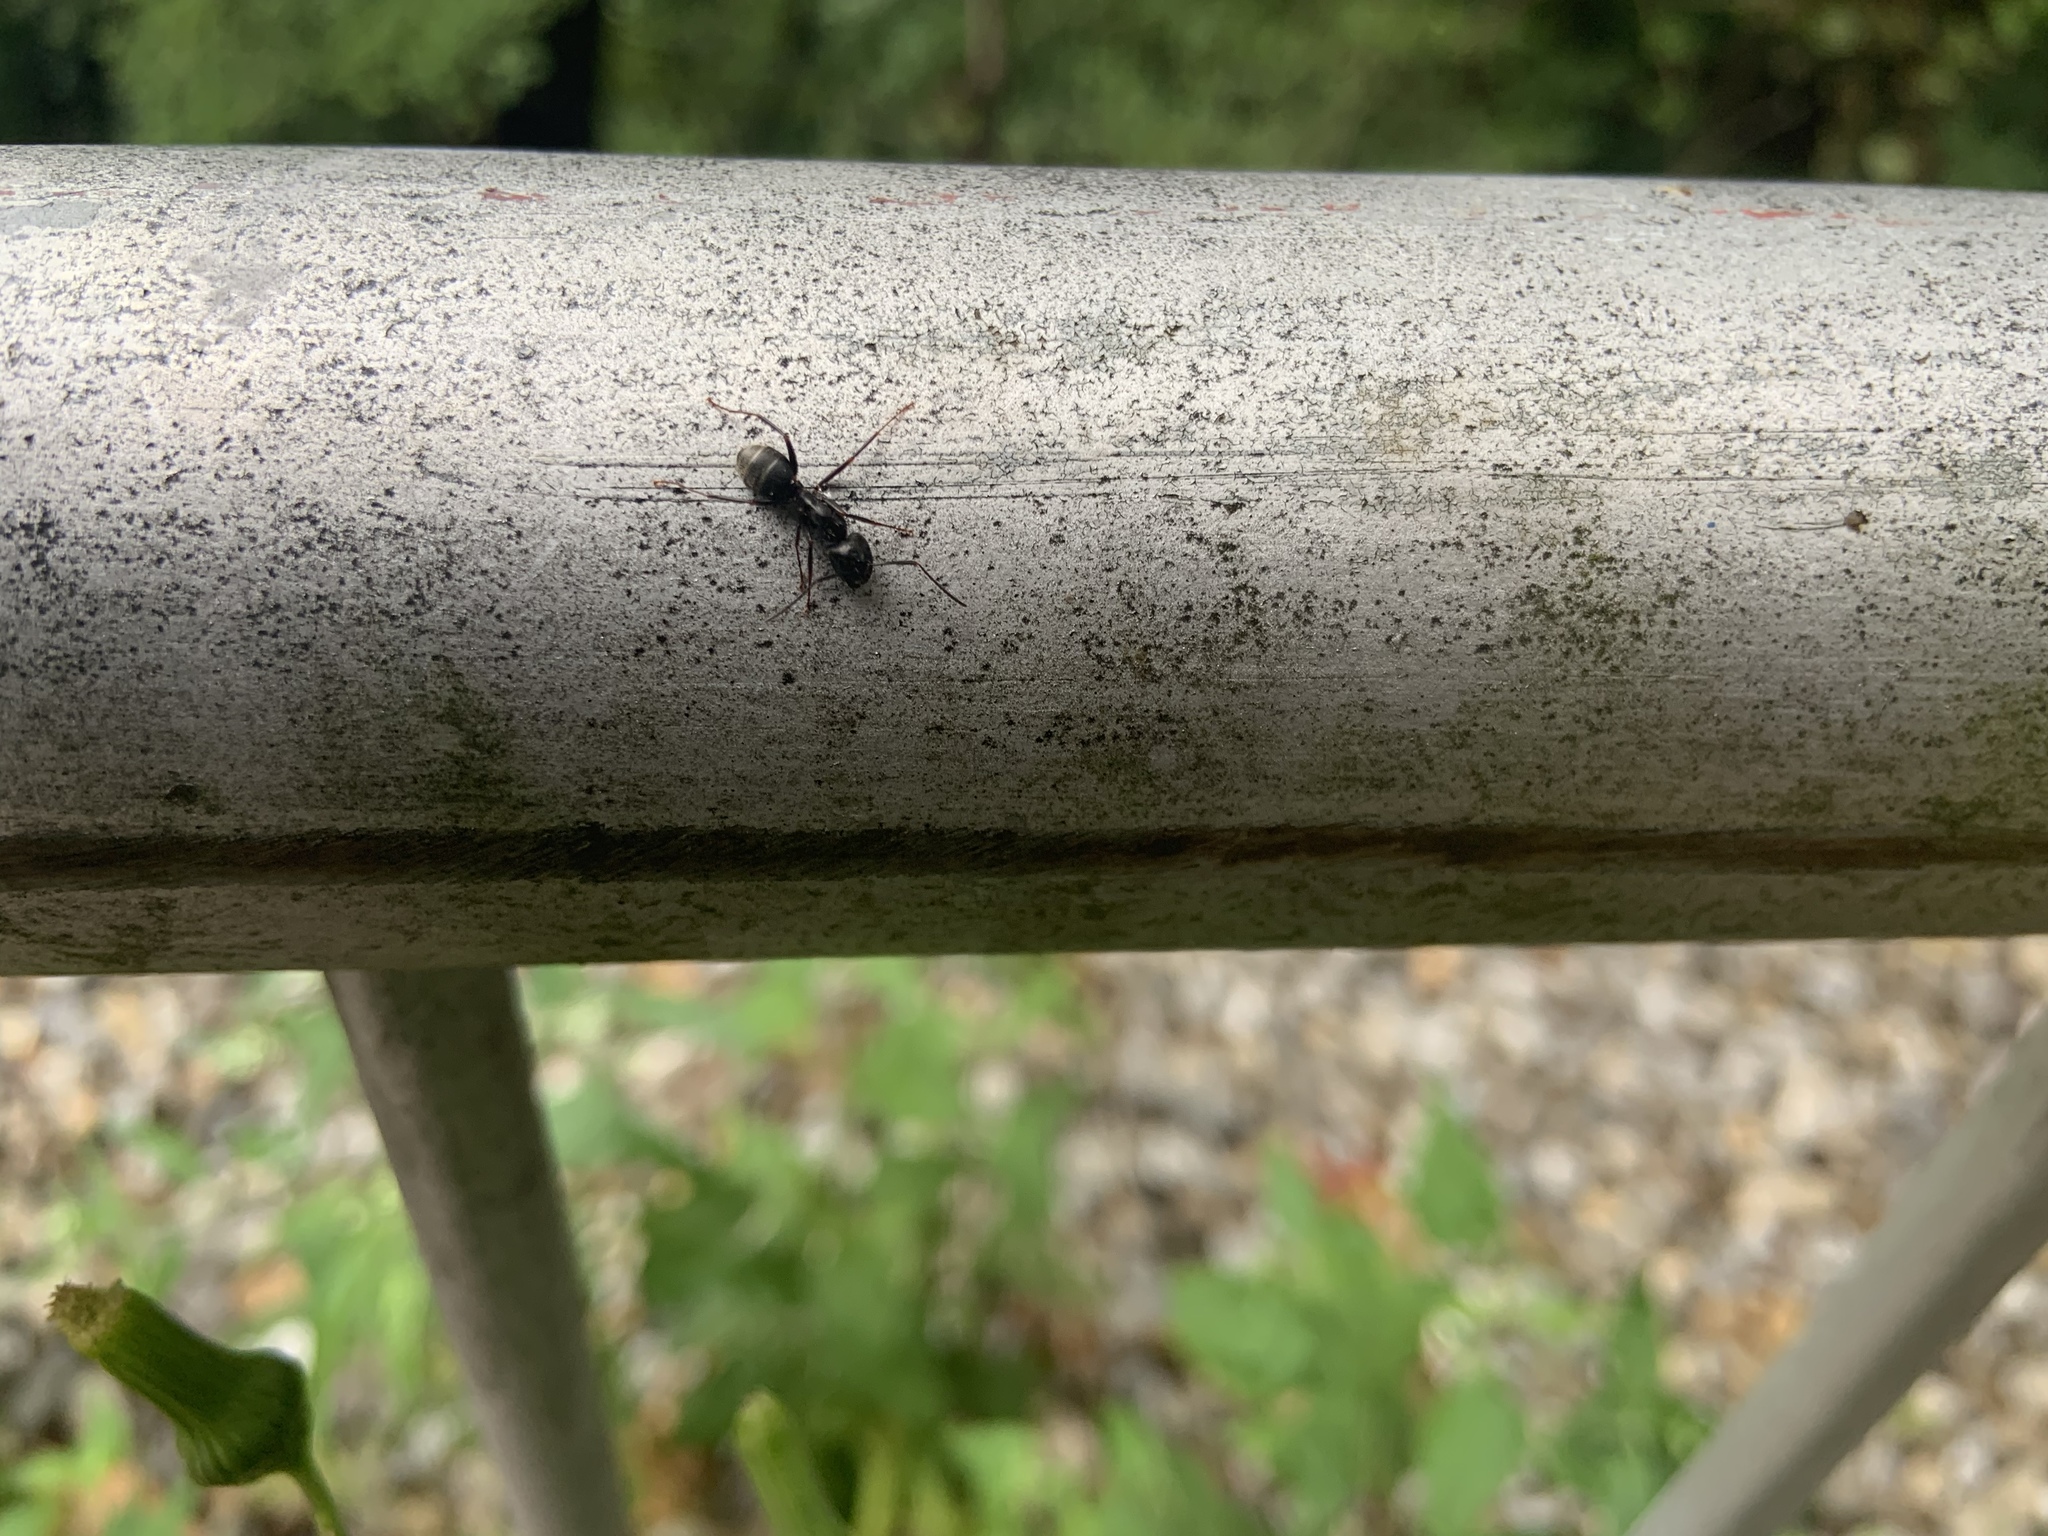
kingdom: Animalia
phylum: Arthropoda
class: Insecta
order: Hymenoptera
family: Formicidae
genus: Camponotus
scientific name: Camponotus pennsylvanicus
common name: Black carpenter ant
